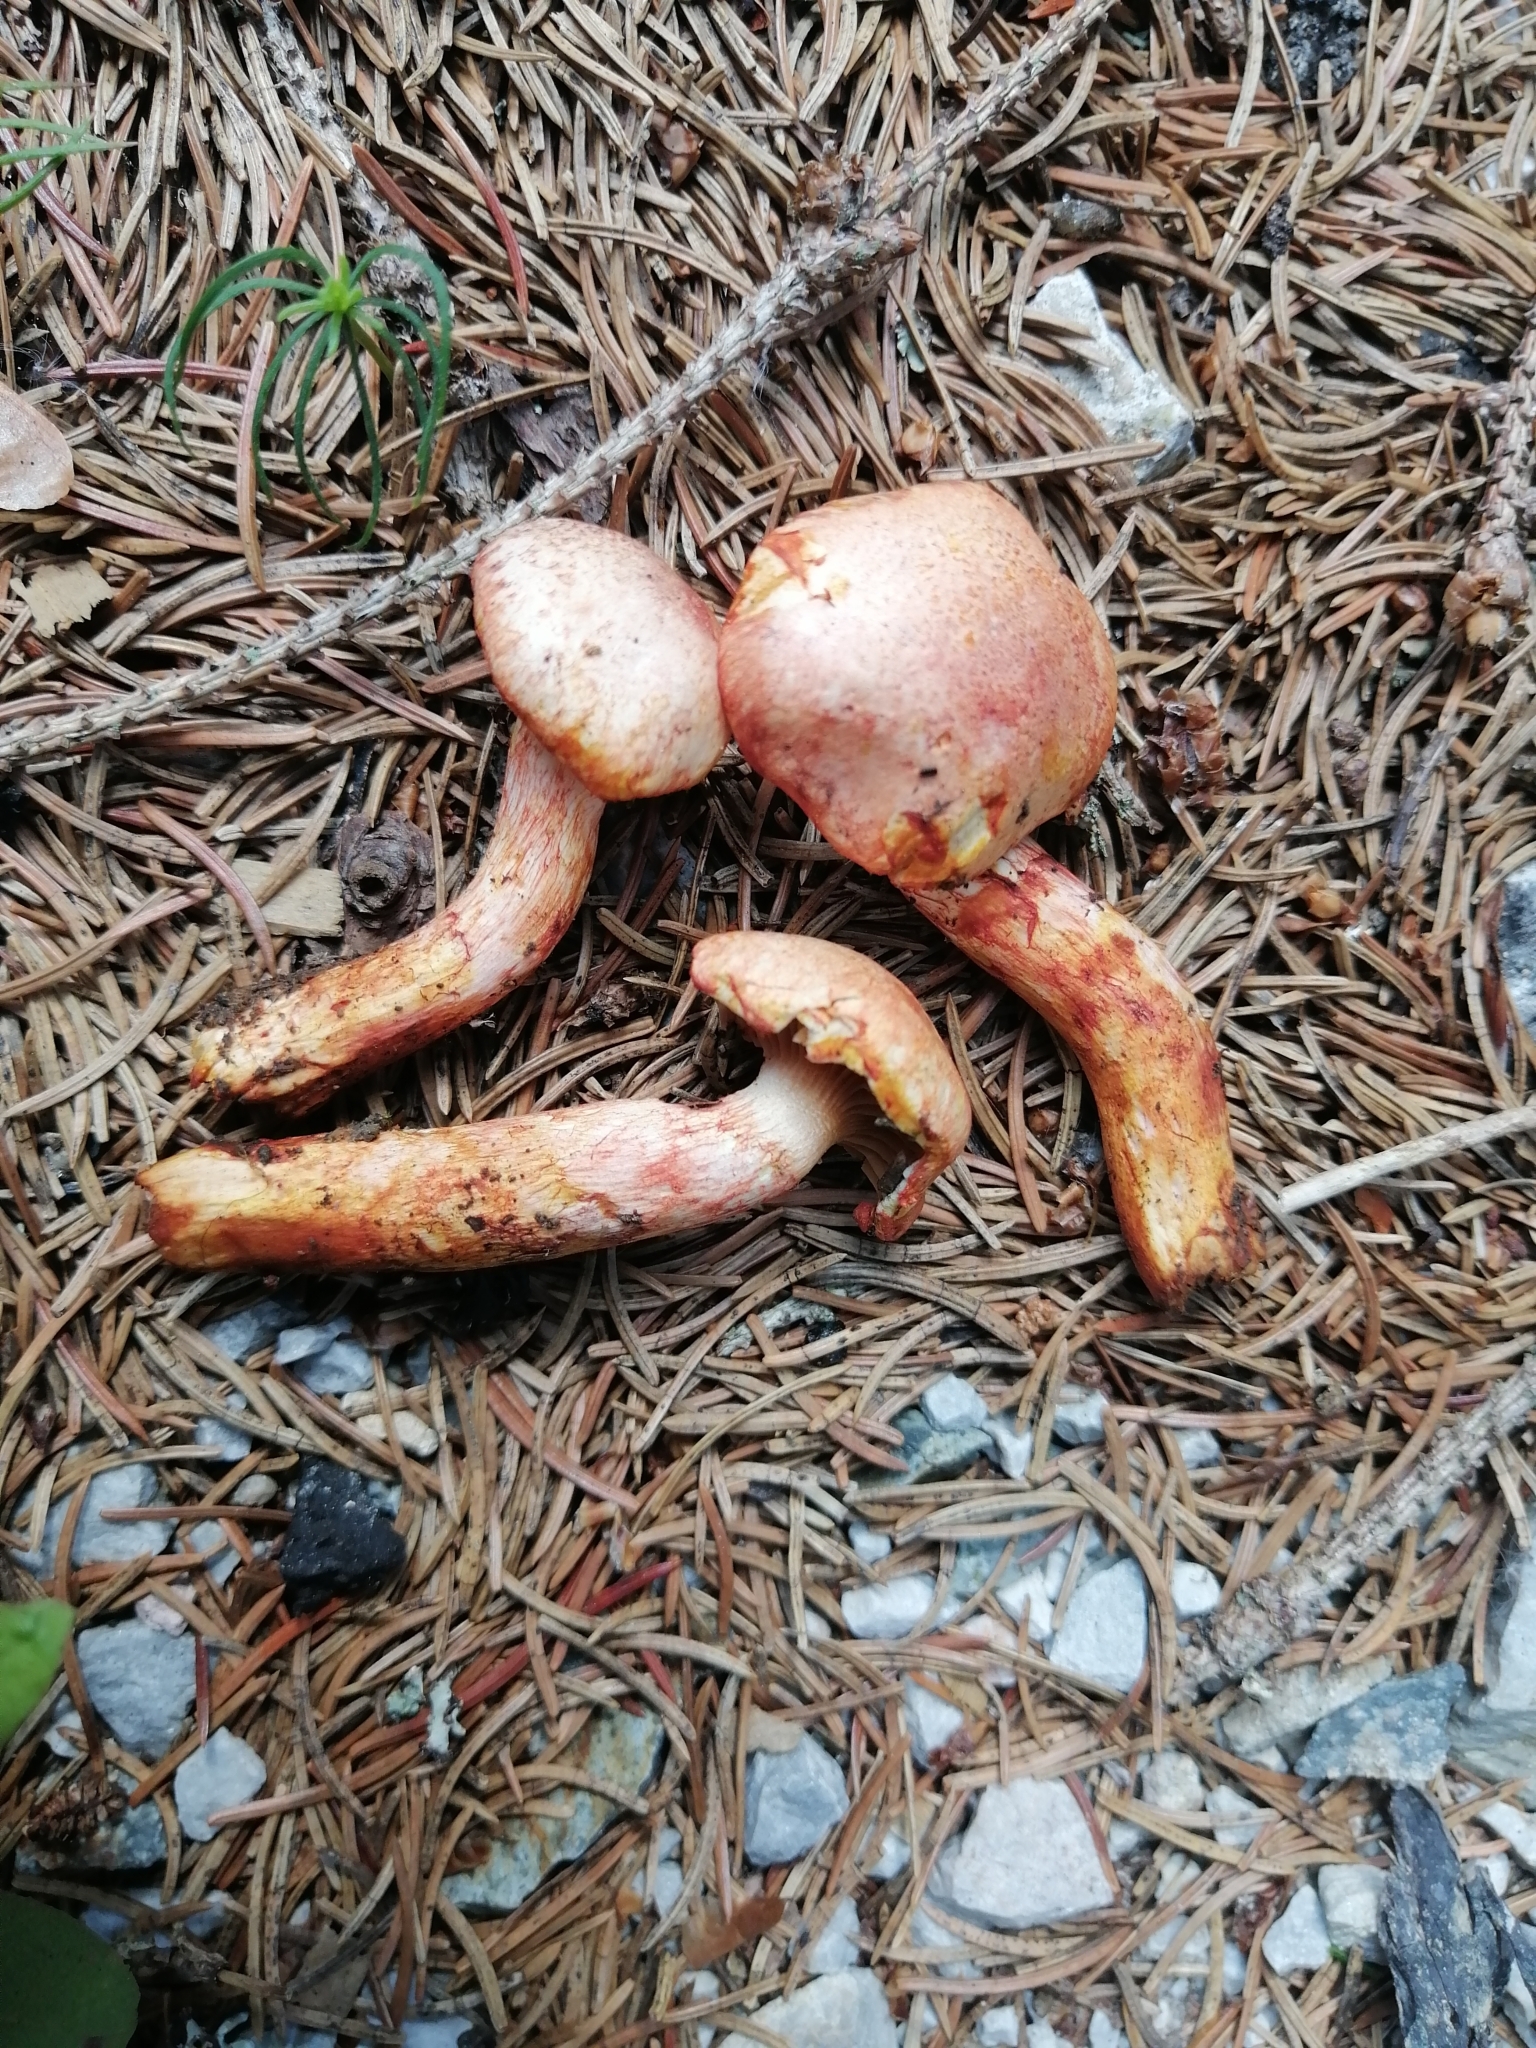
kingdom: Fungi
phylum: Basidiomycota
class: Agaricomycetes
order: Agaricales
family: Cortinariaceae
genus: Cortinarius
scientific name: Cortinarius bolaris
